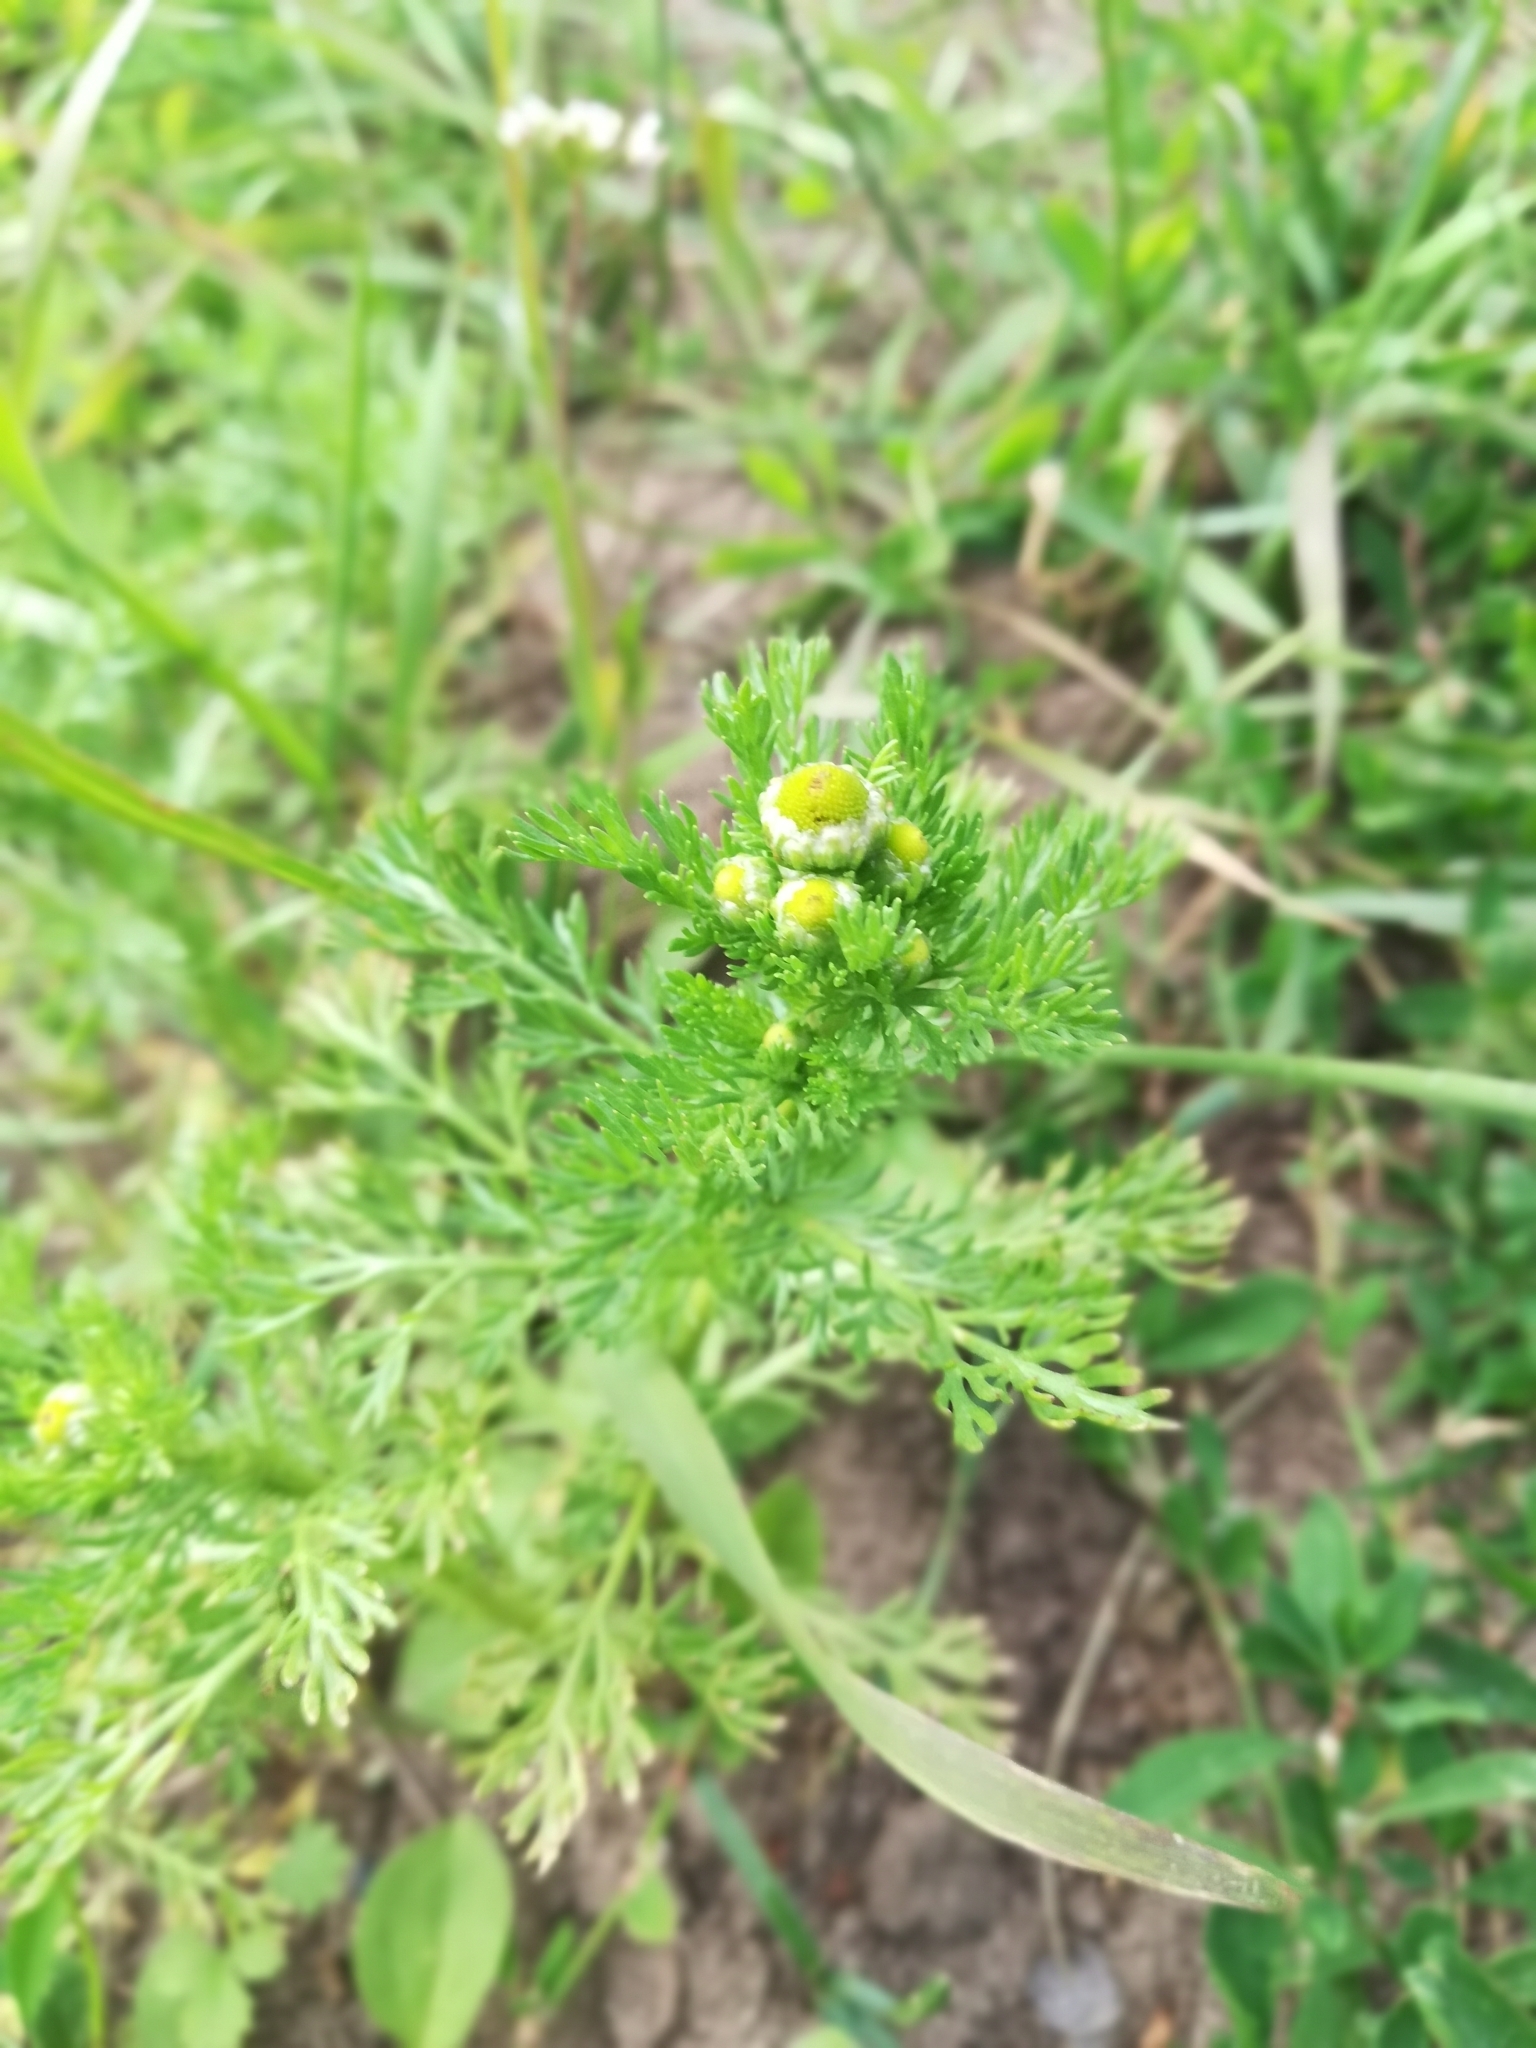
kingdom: Plantae
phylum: Tracheophyta
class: Magnoliopsida
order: Asterales
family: Asteraceae
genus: Matricaria
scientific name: Matricaria discoidea
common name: Disc mayweed
